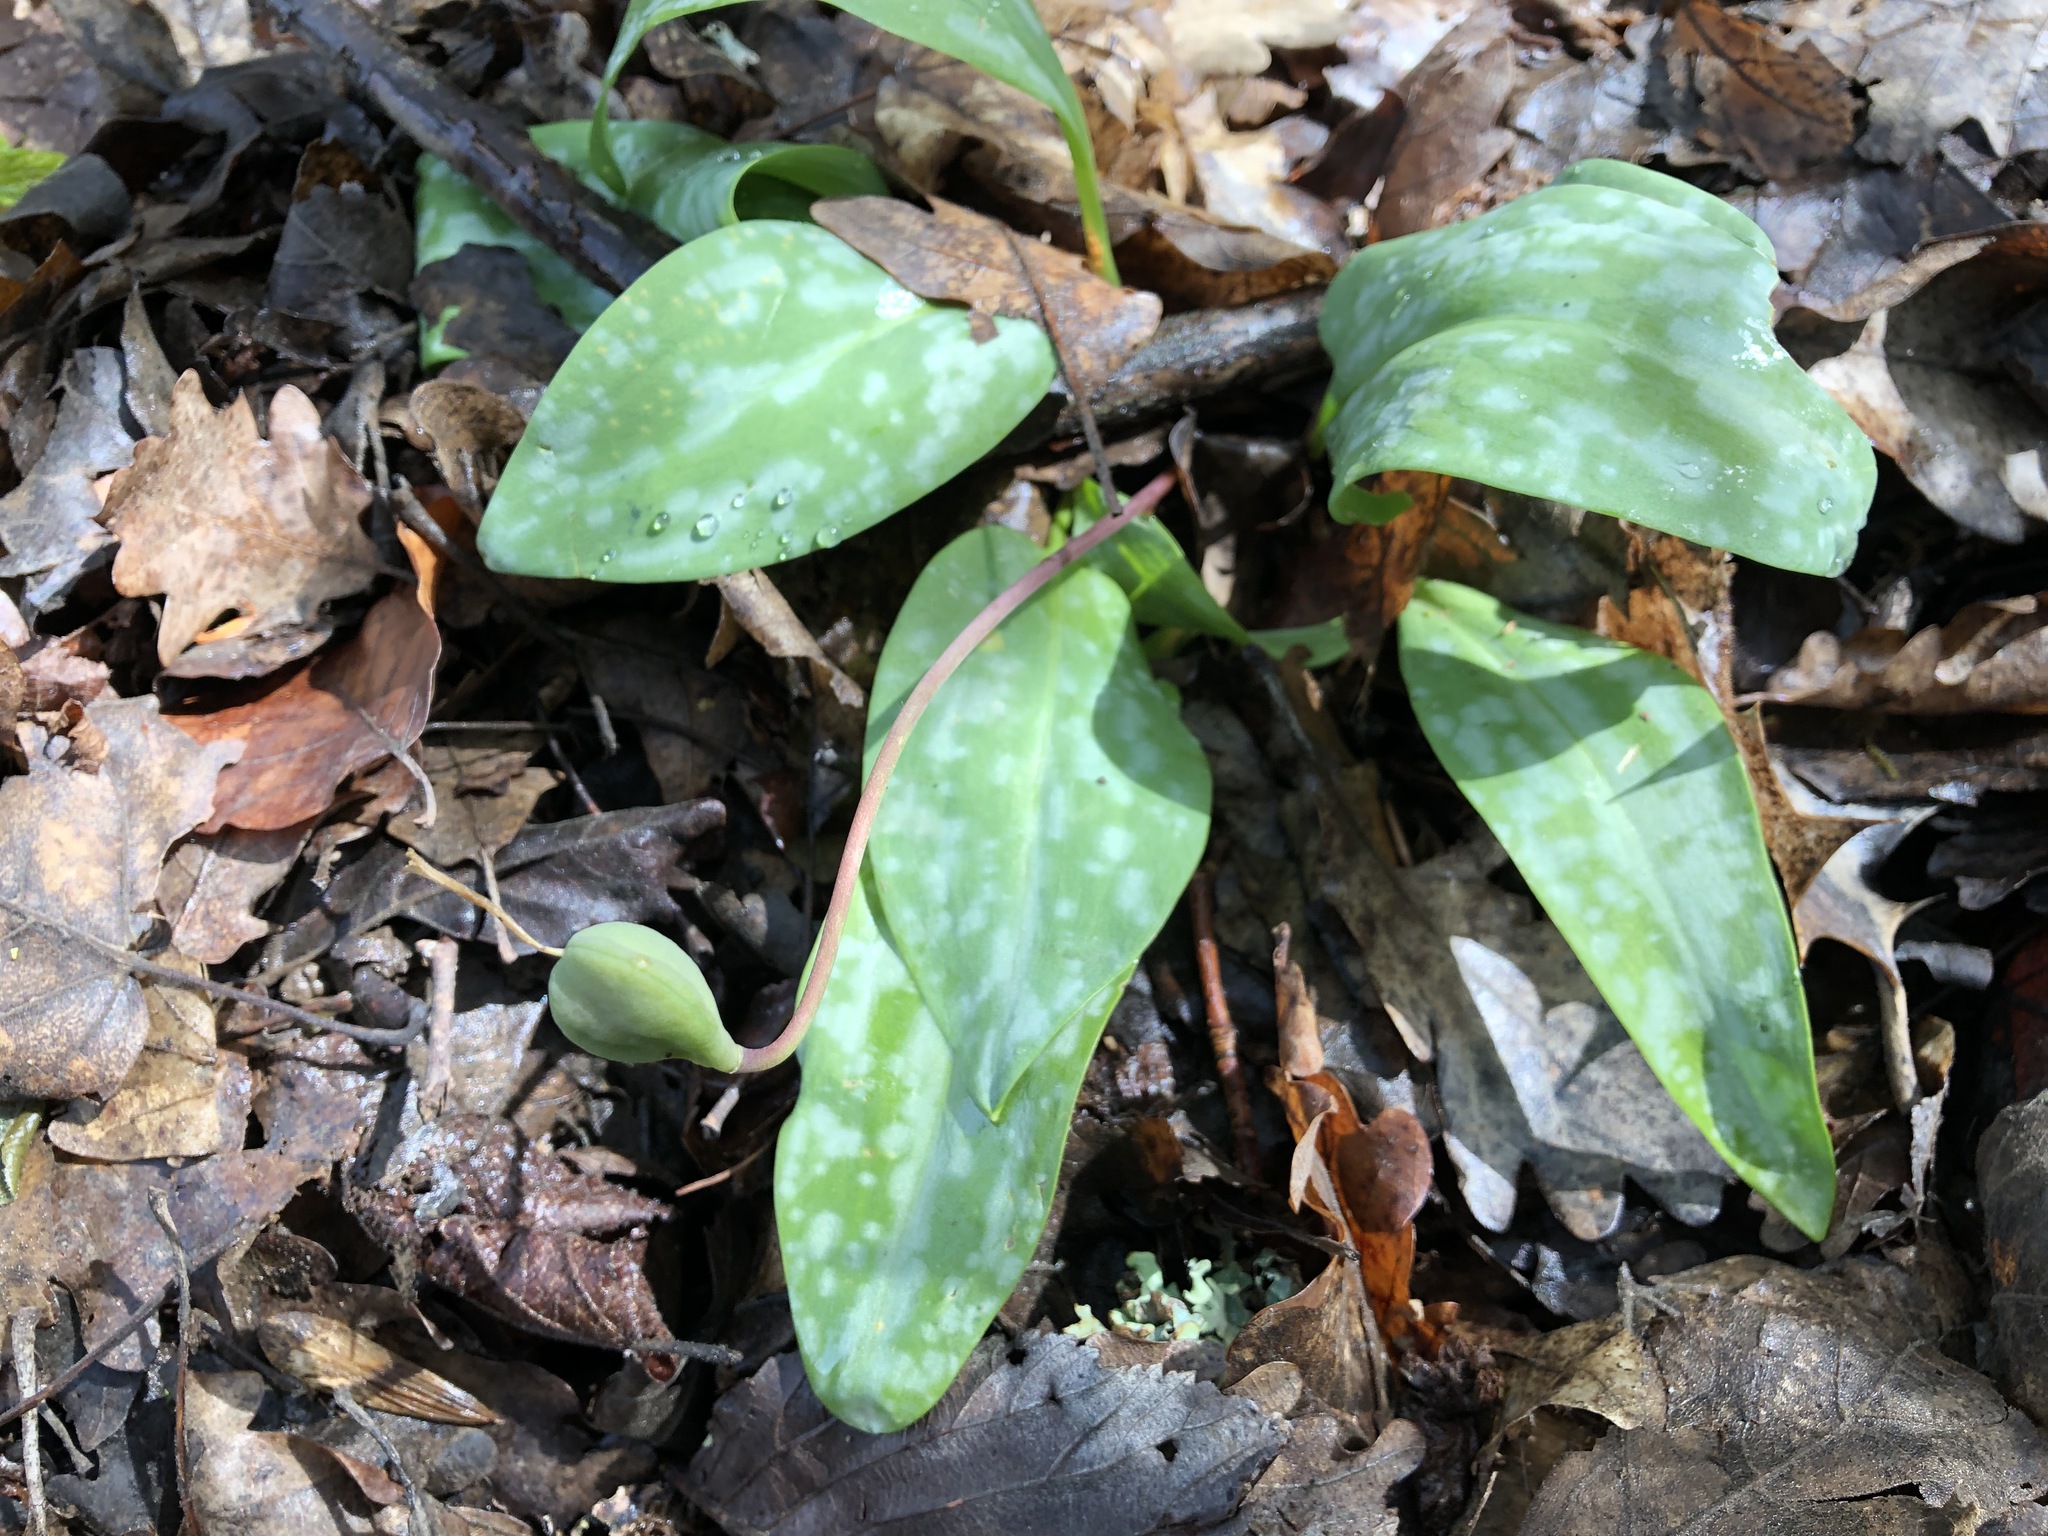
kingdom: Plantae
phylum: Tracheophyta
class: Liliopsida
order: Liliales
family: Liliaceae
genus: Erythronium
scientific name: Erythronium dens-canis
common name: Dog's-tooth-violet
